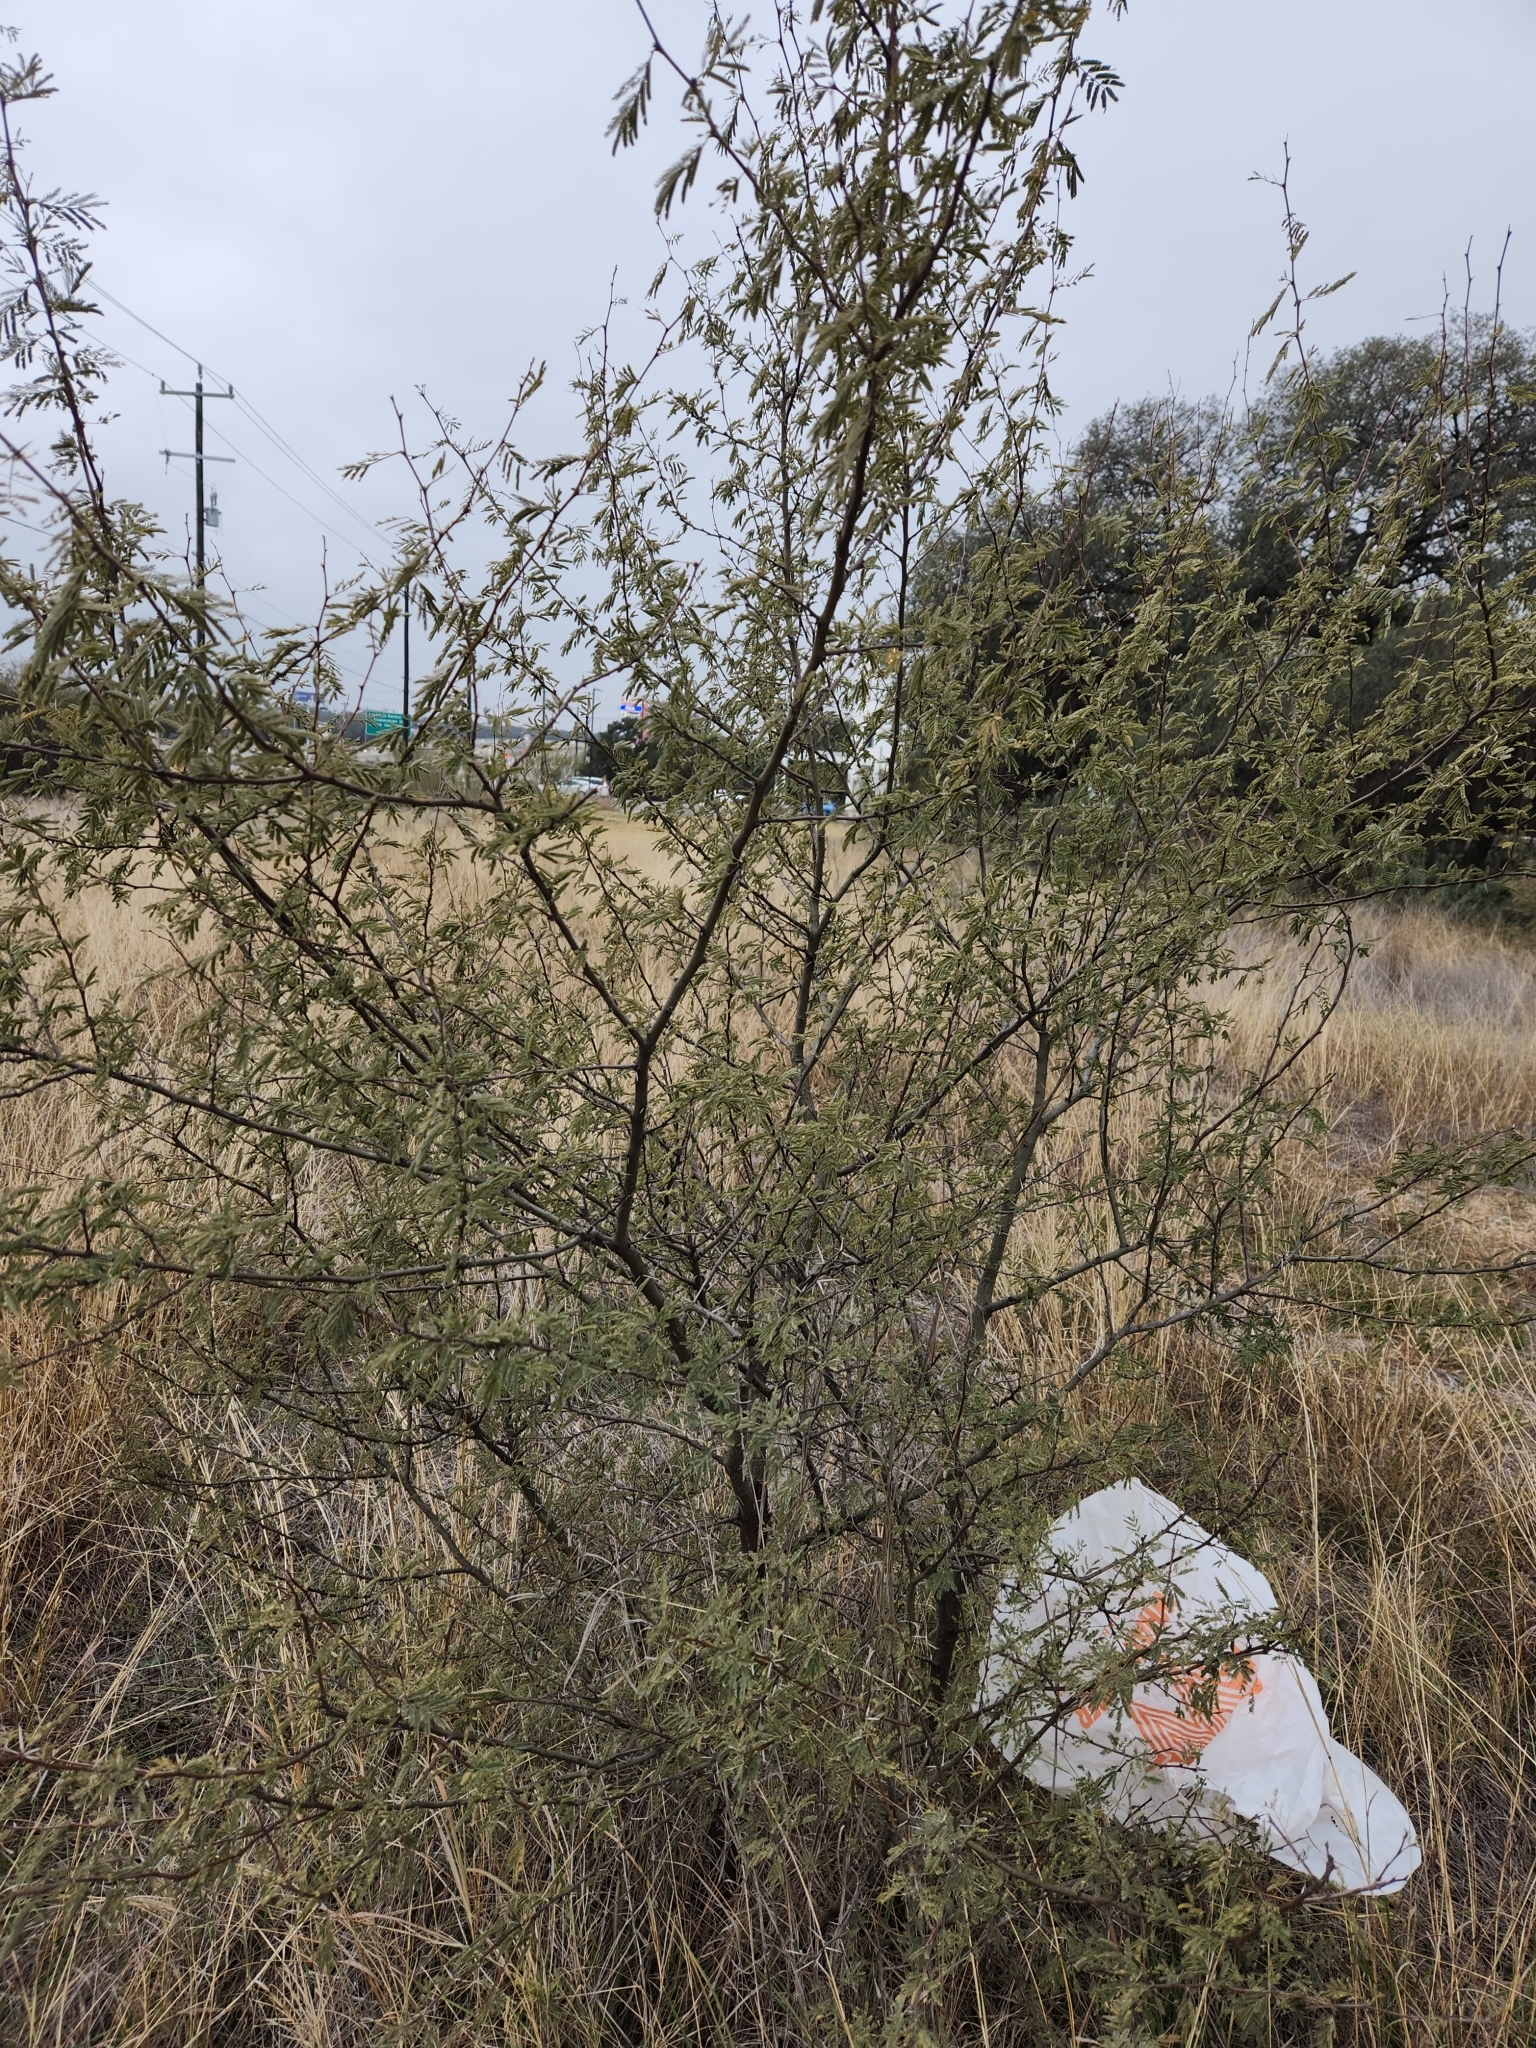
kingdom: Plantae
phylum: Tracheophyta
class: Magnoliopsida
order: Fabales
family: Fabaceae
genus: Vachellia
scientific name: Vachellia farnesiana
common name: Sweet acacia
